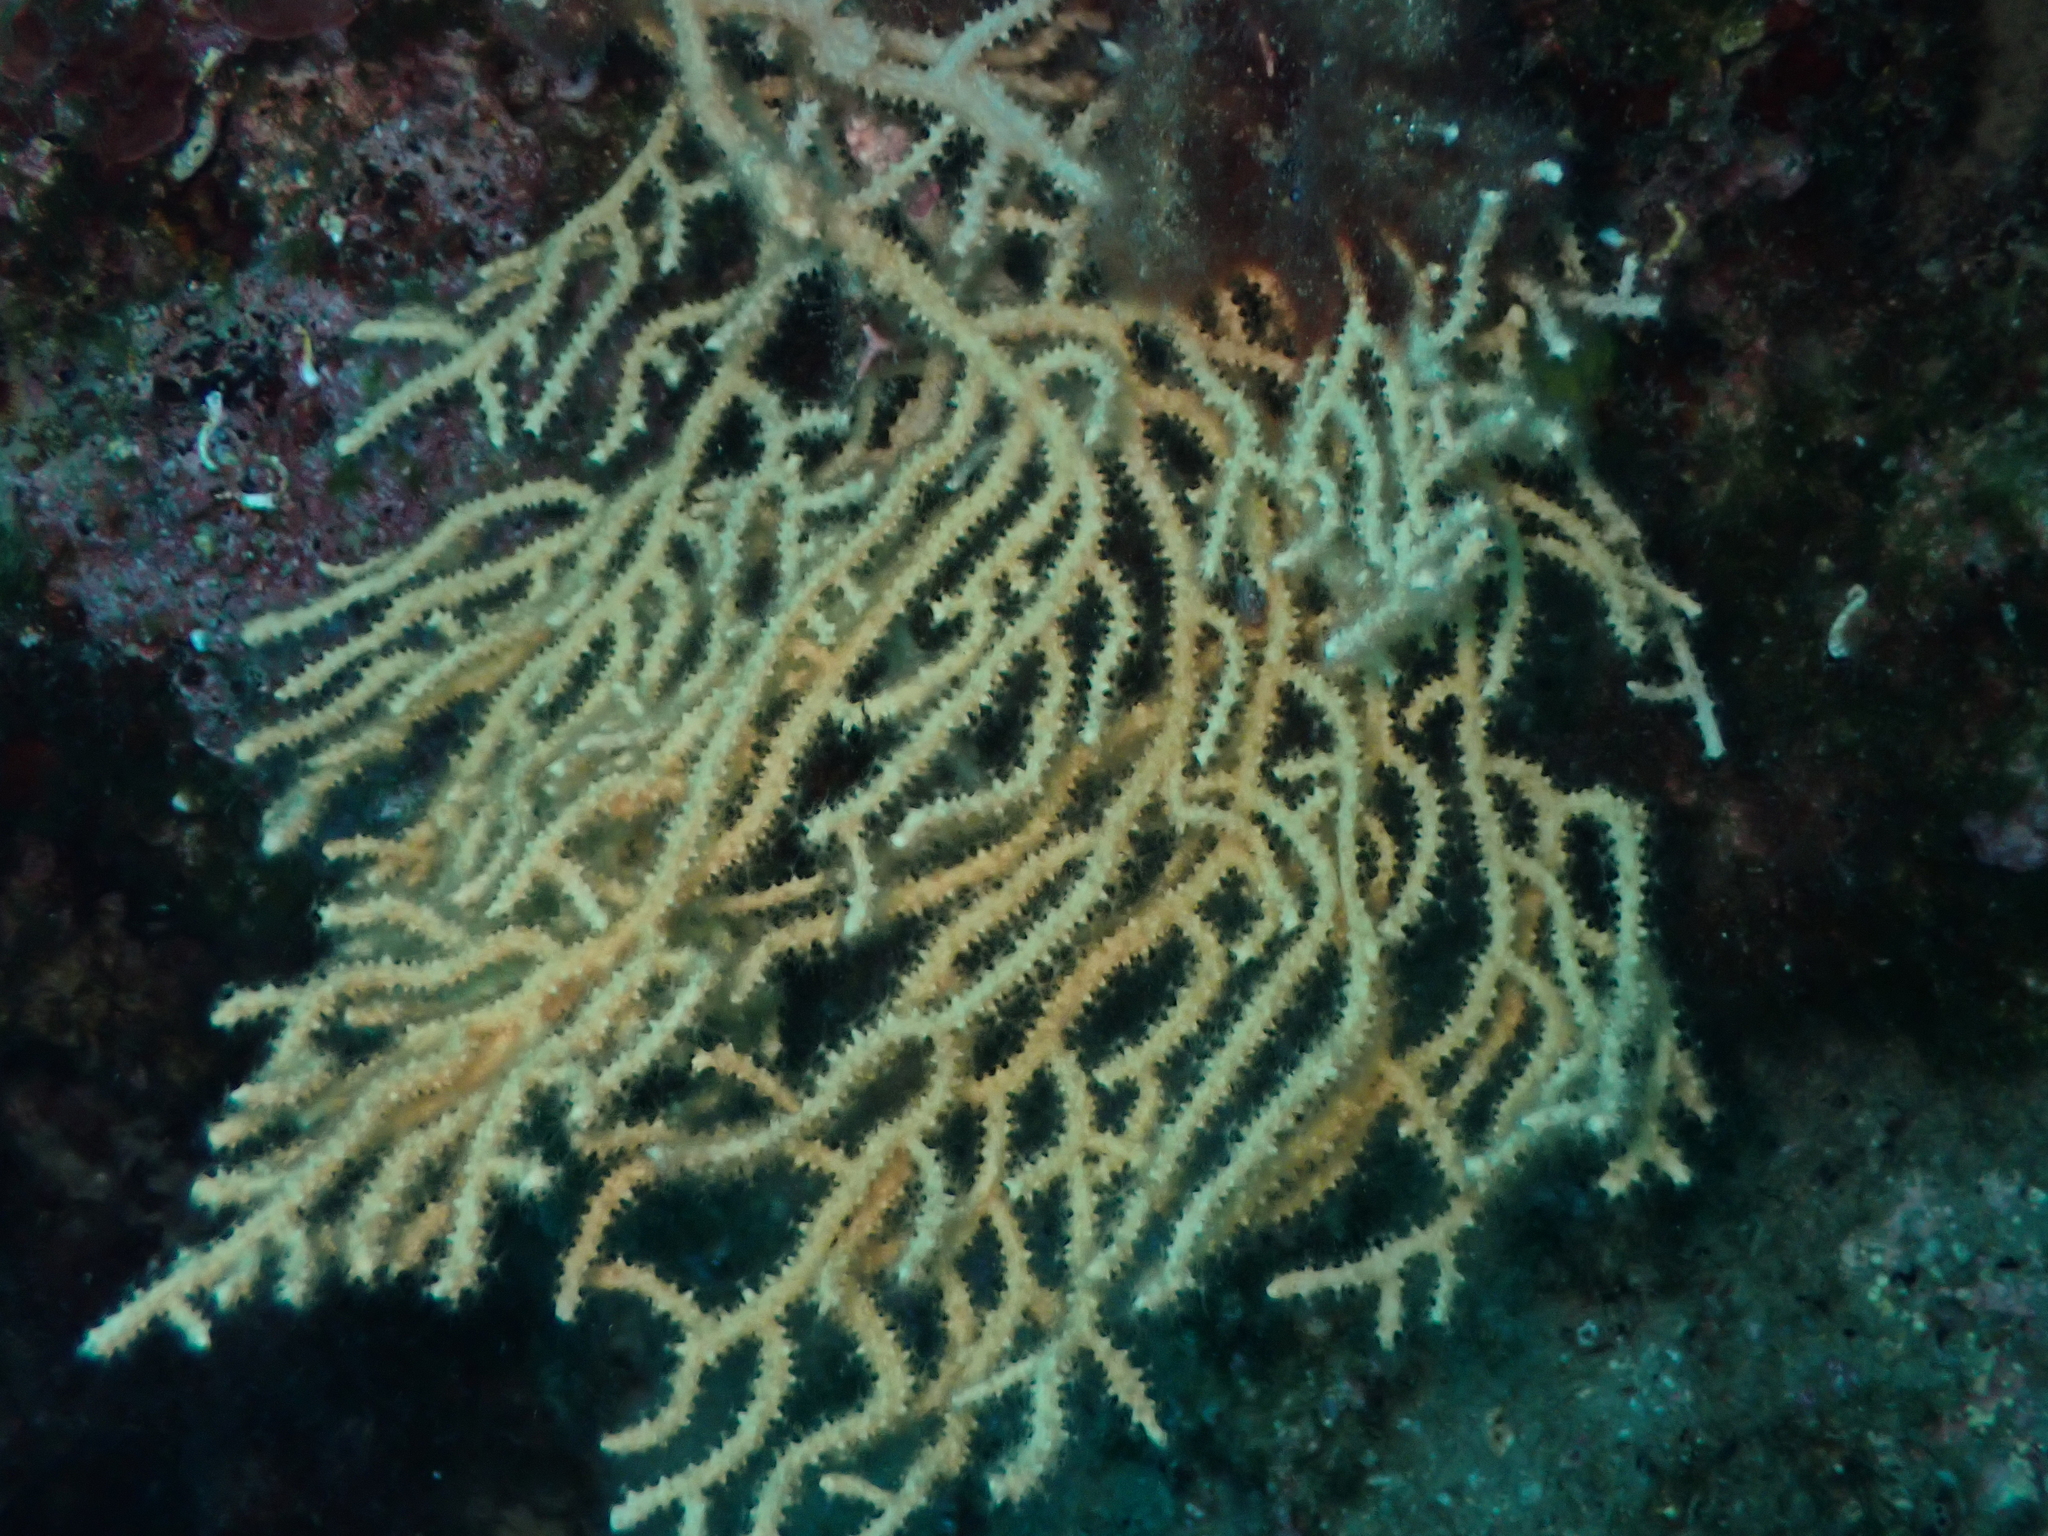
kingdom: Animalia
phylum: Cnidaria
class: Anthozoa
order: Malacalcyonacea
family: Eunicellidae
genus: Eunicella
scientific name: Eunicella cavolini
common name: Yellow gorgonian
